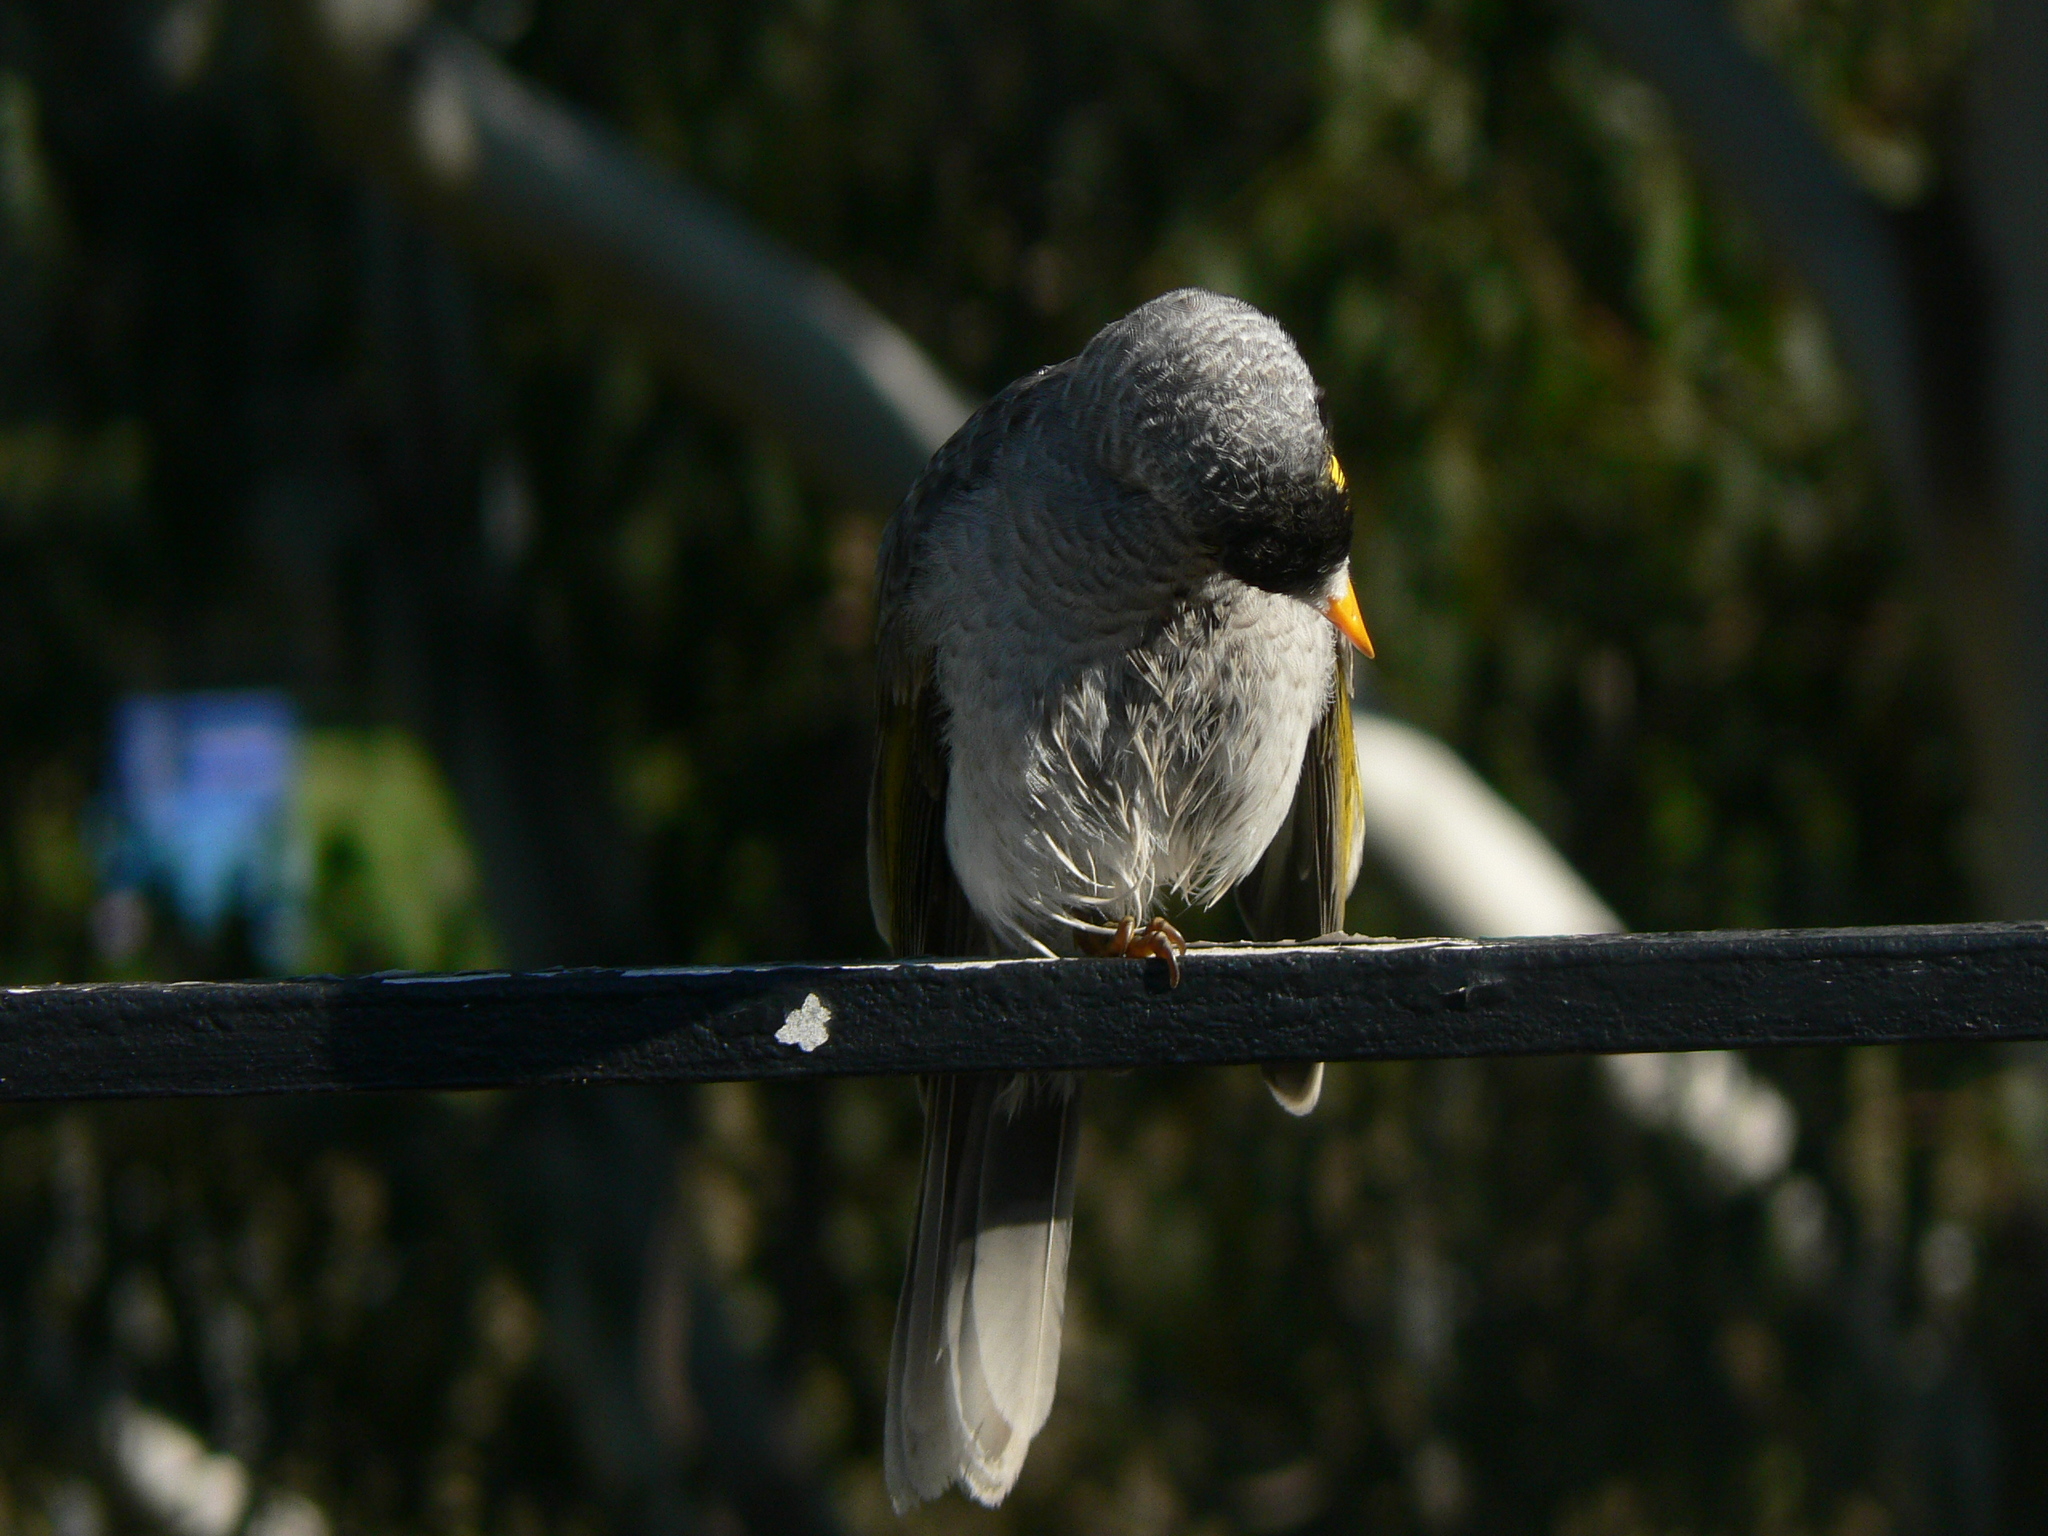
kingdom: Animalia
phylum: Chordata
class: Aves
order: Passeriformes
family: Meliphagidae
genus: Manorina
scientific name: Manorina melanocephala
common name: Noisy miner
